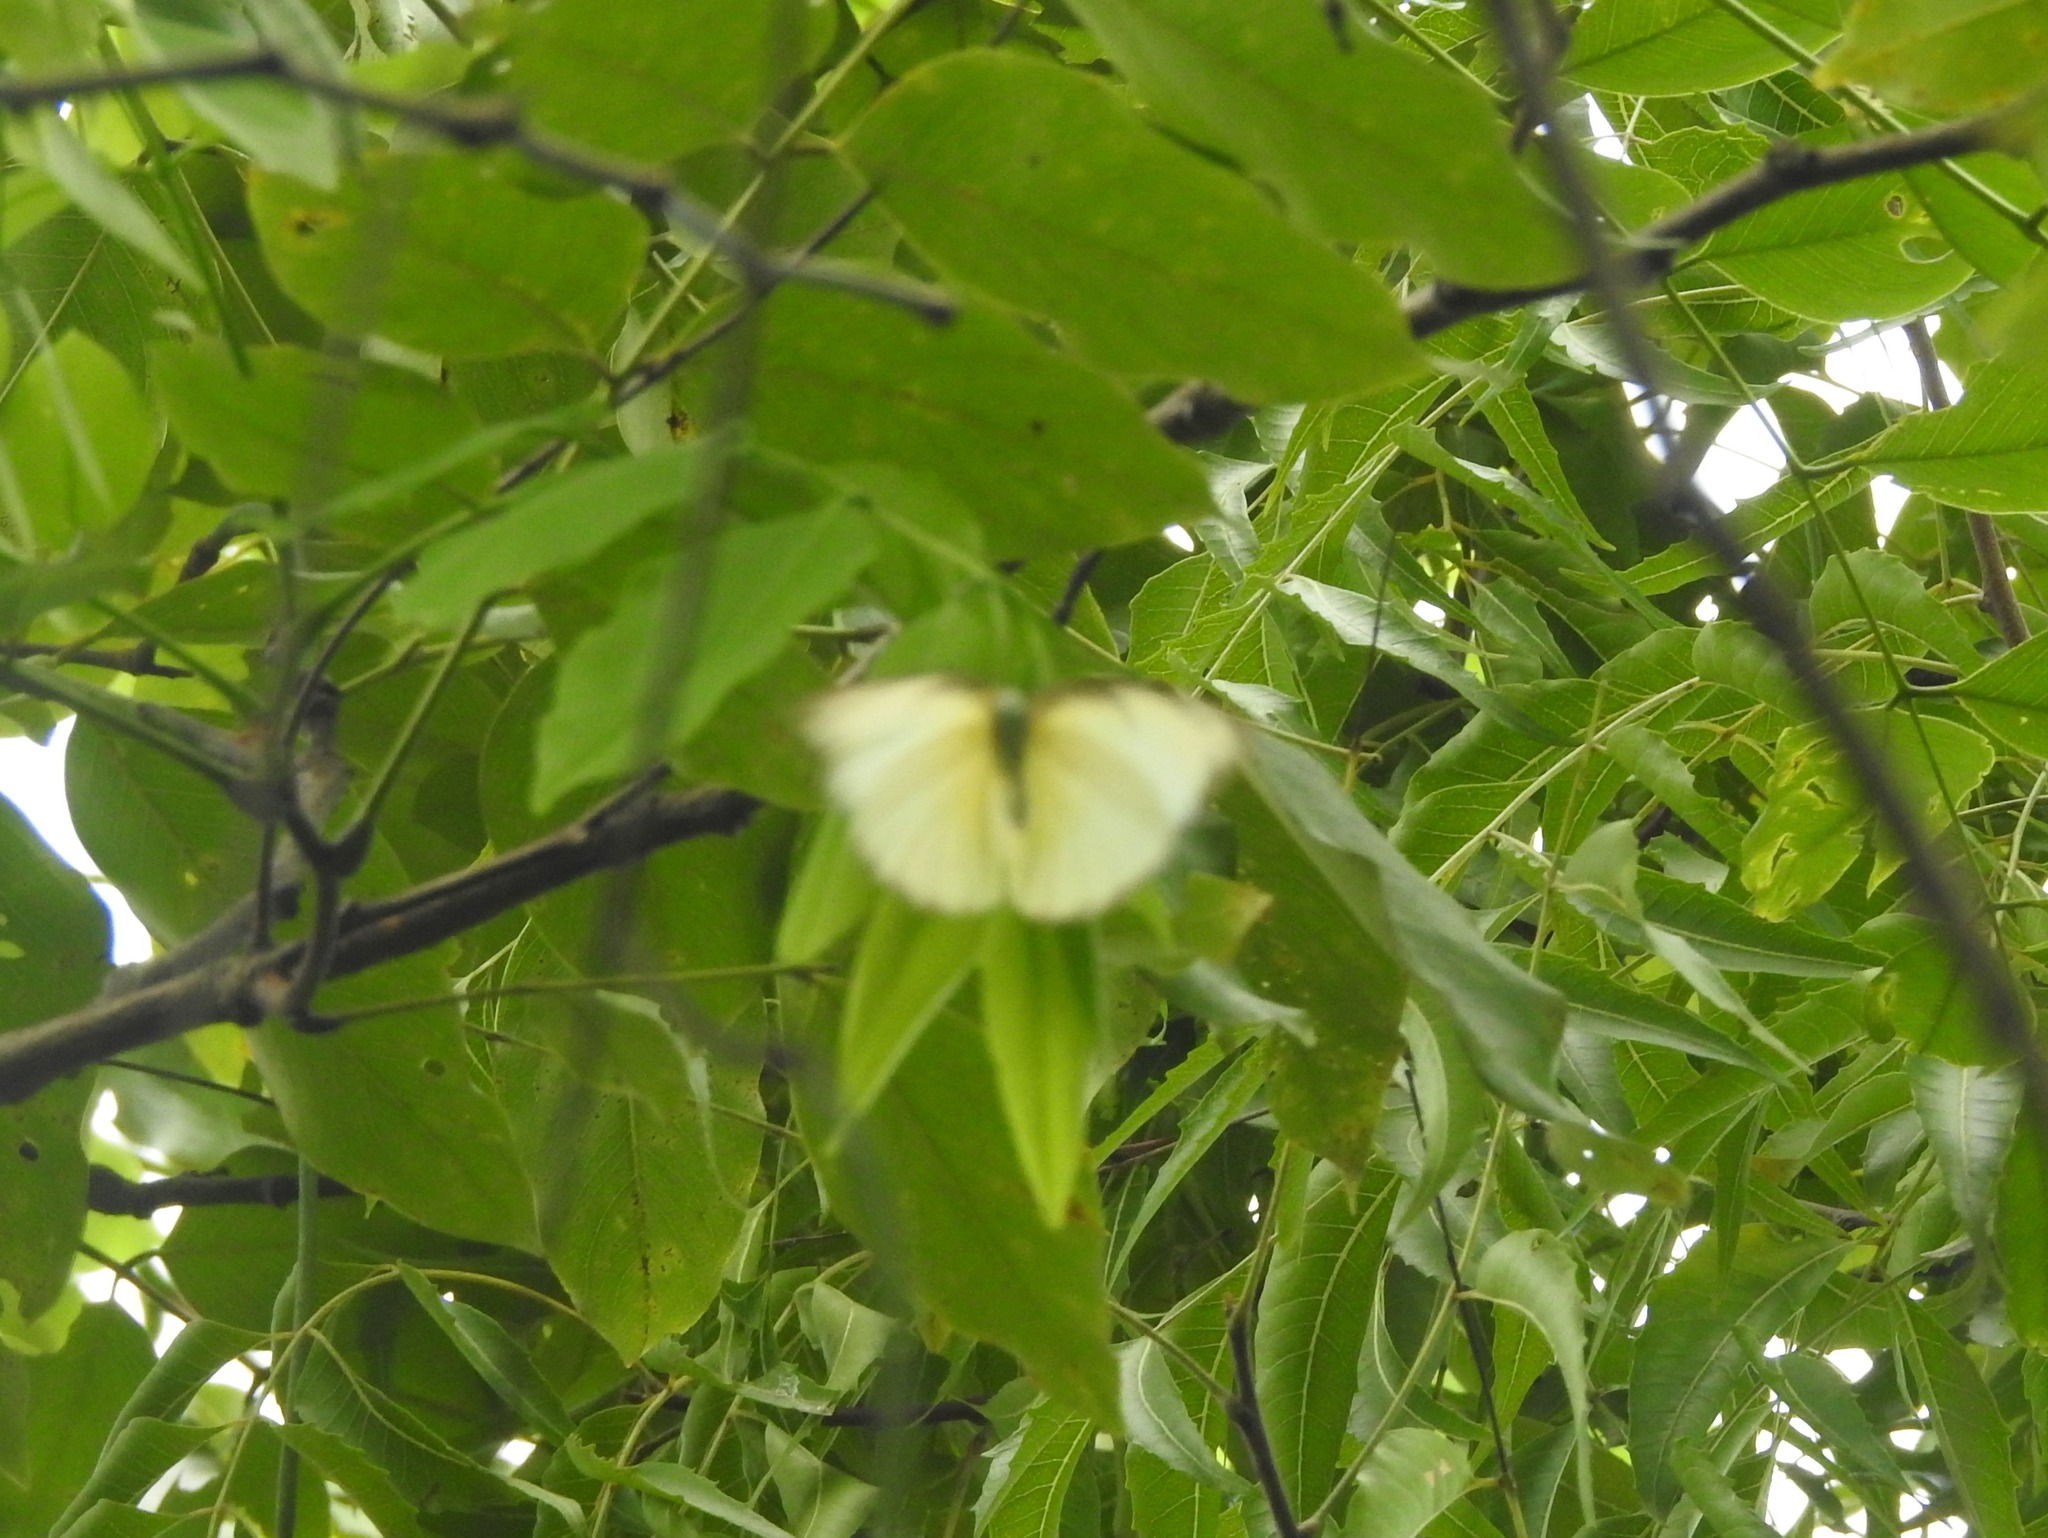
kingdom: Animalia
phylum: Arthropoda
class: Insecta
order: Lepidoptera
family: Pieridae
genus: Catopsilia
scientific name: Catopsilia pomona
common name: Common emigrant
